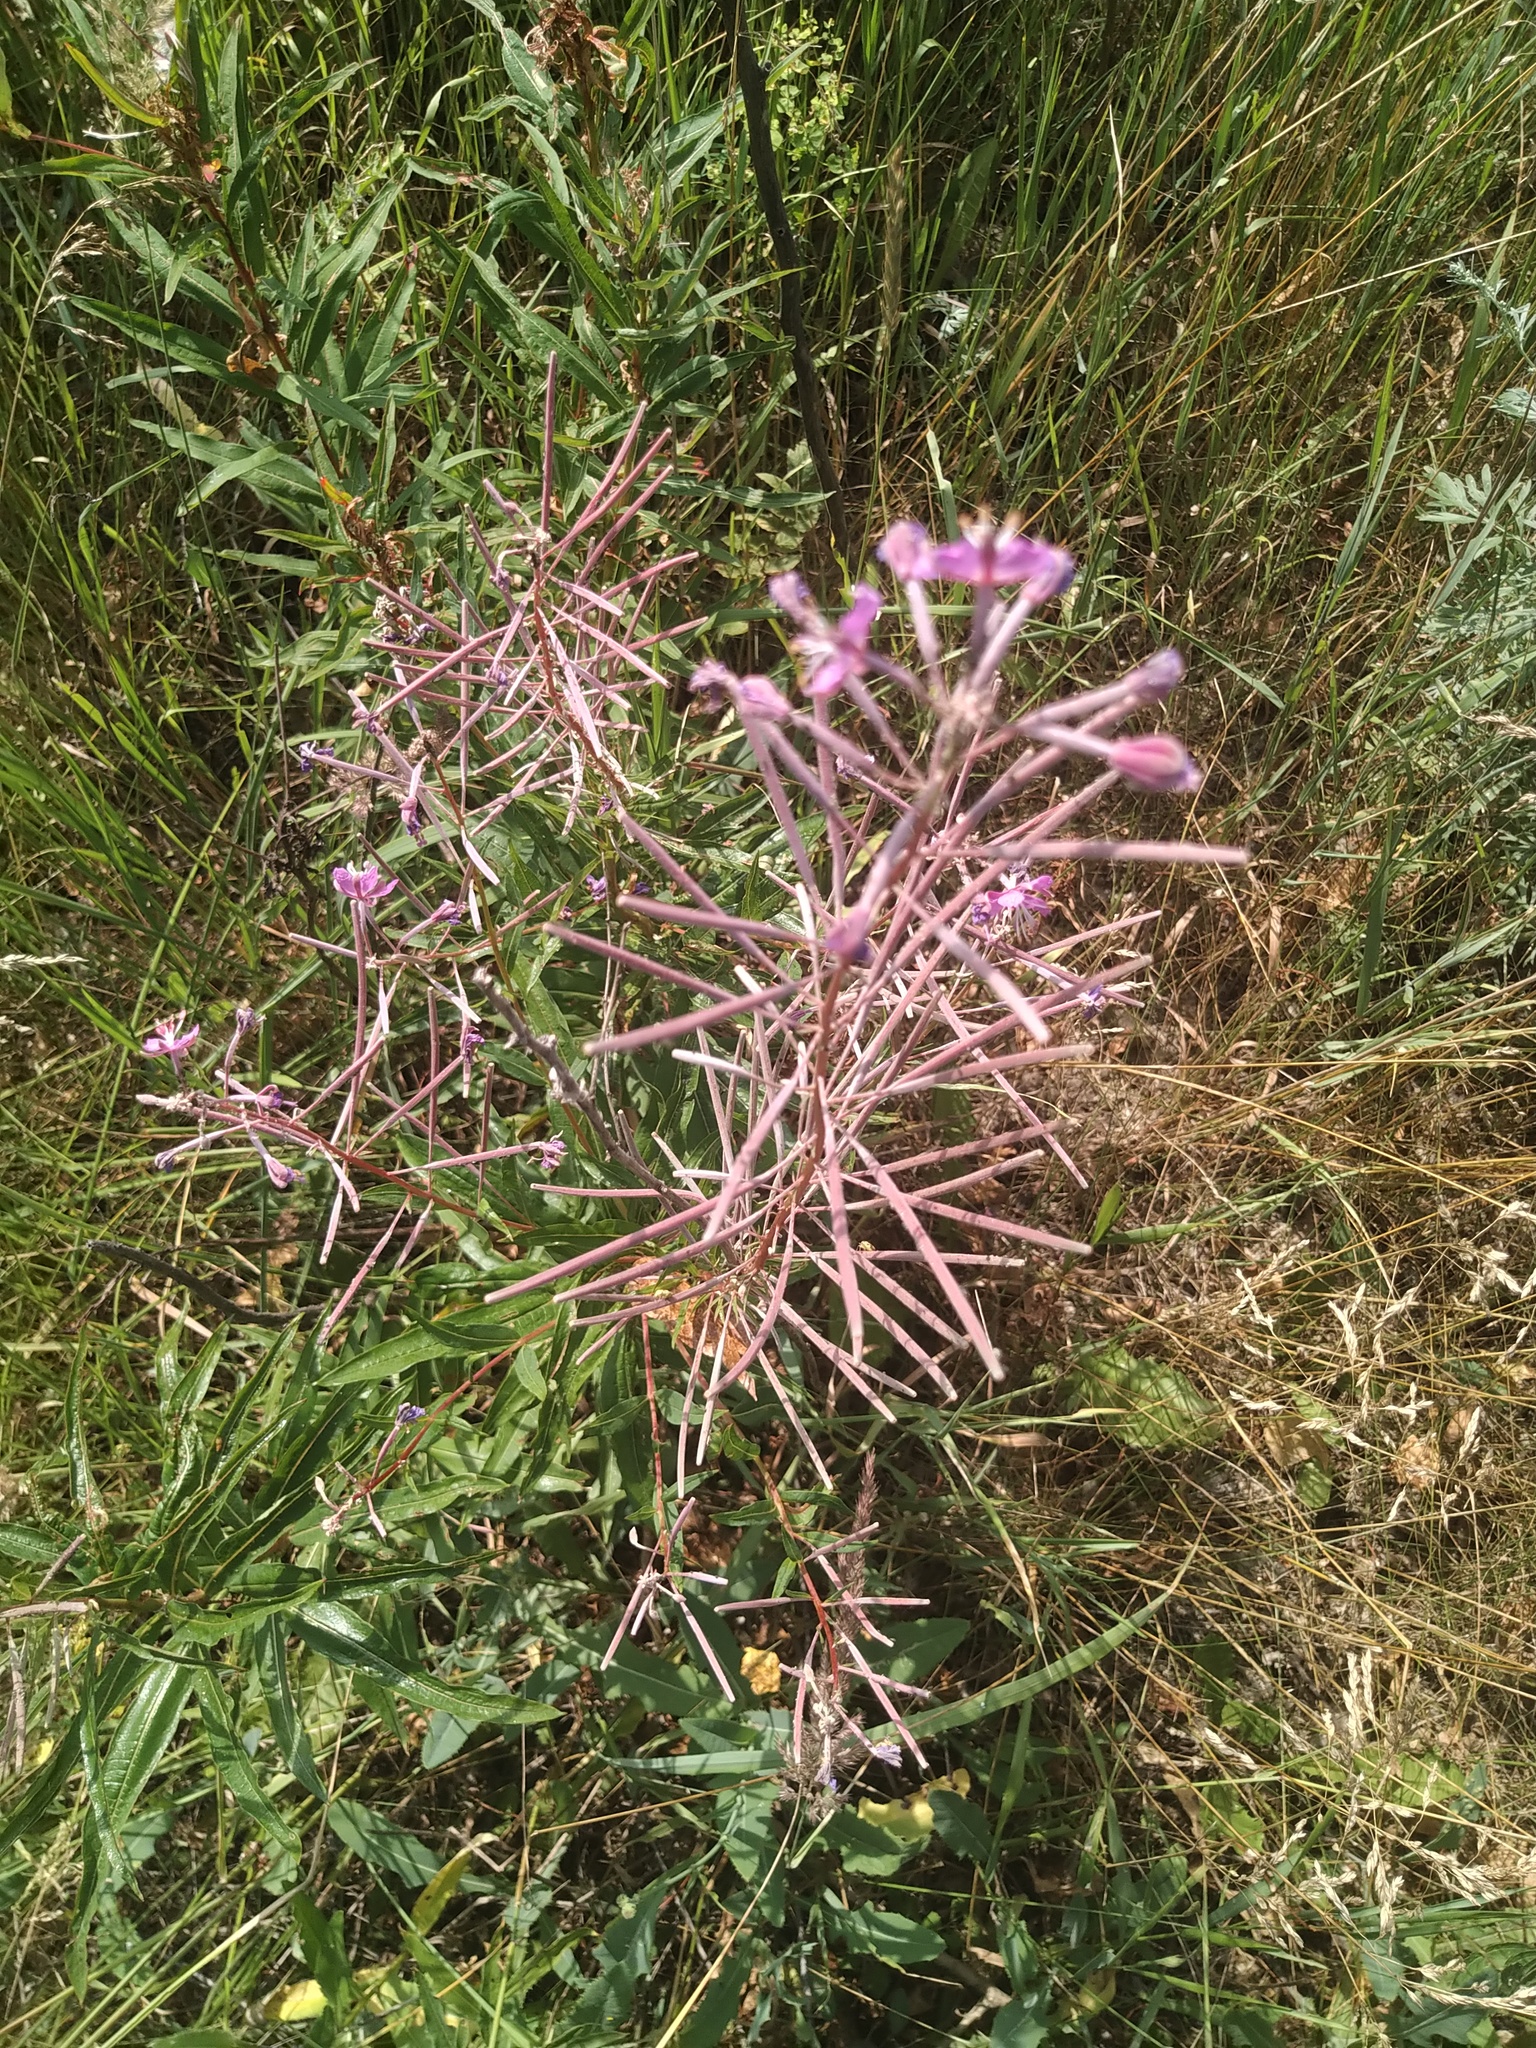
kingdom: Plantae
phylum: Tracheophyta
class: Magnoliopsida
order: Myrtales
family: Onagraceae
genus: Chamaenerion
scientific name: Chamaenerion angustifolium
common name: Fireweed
